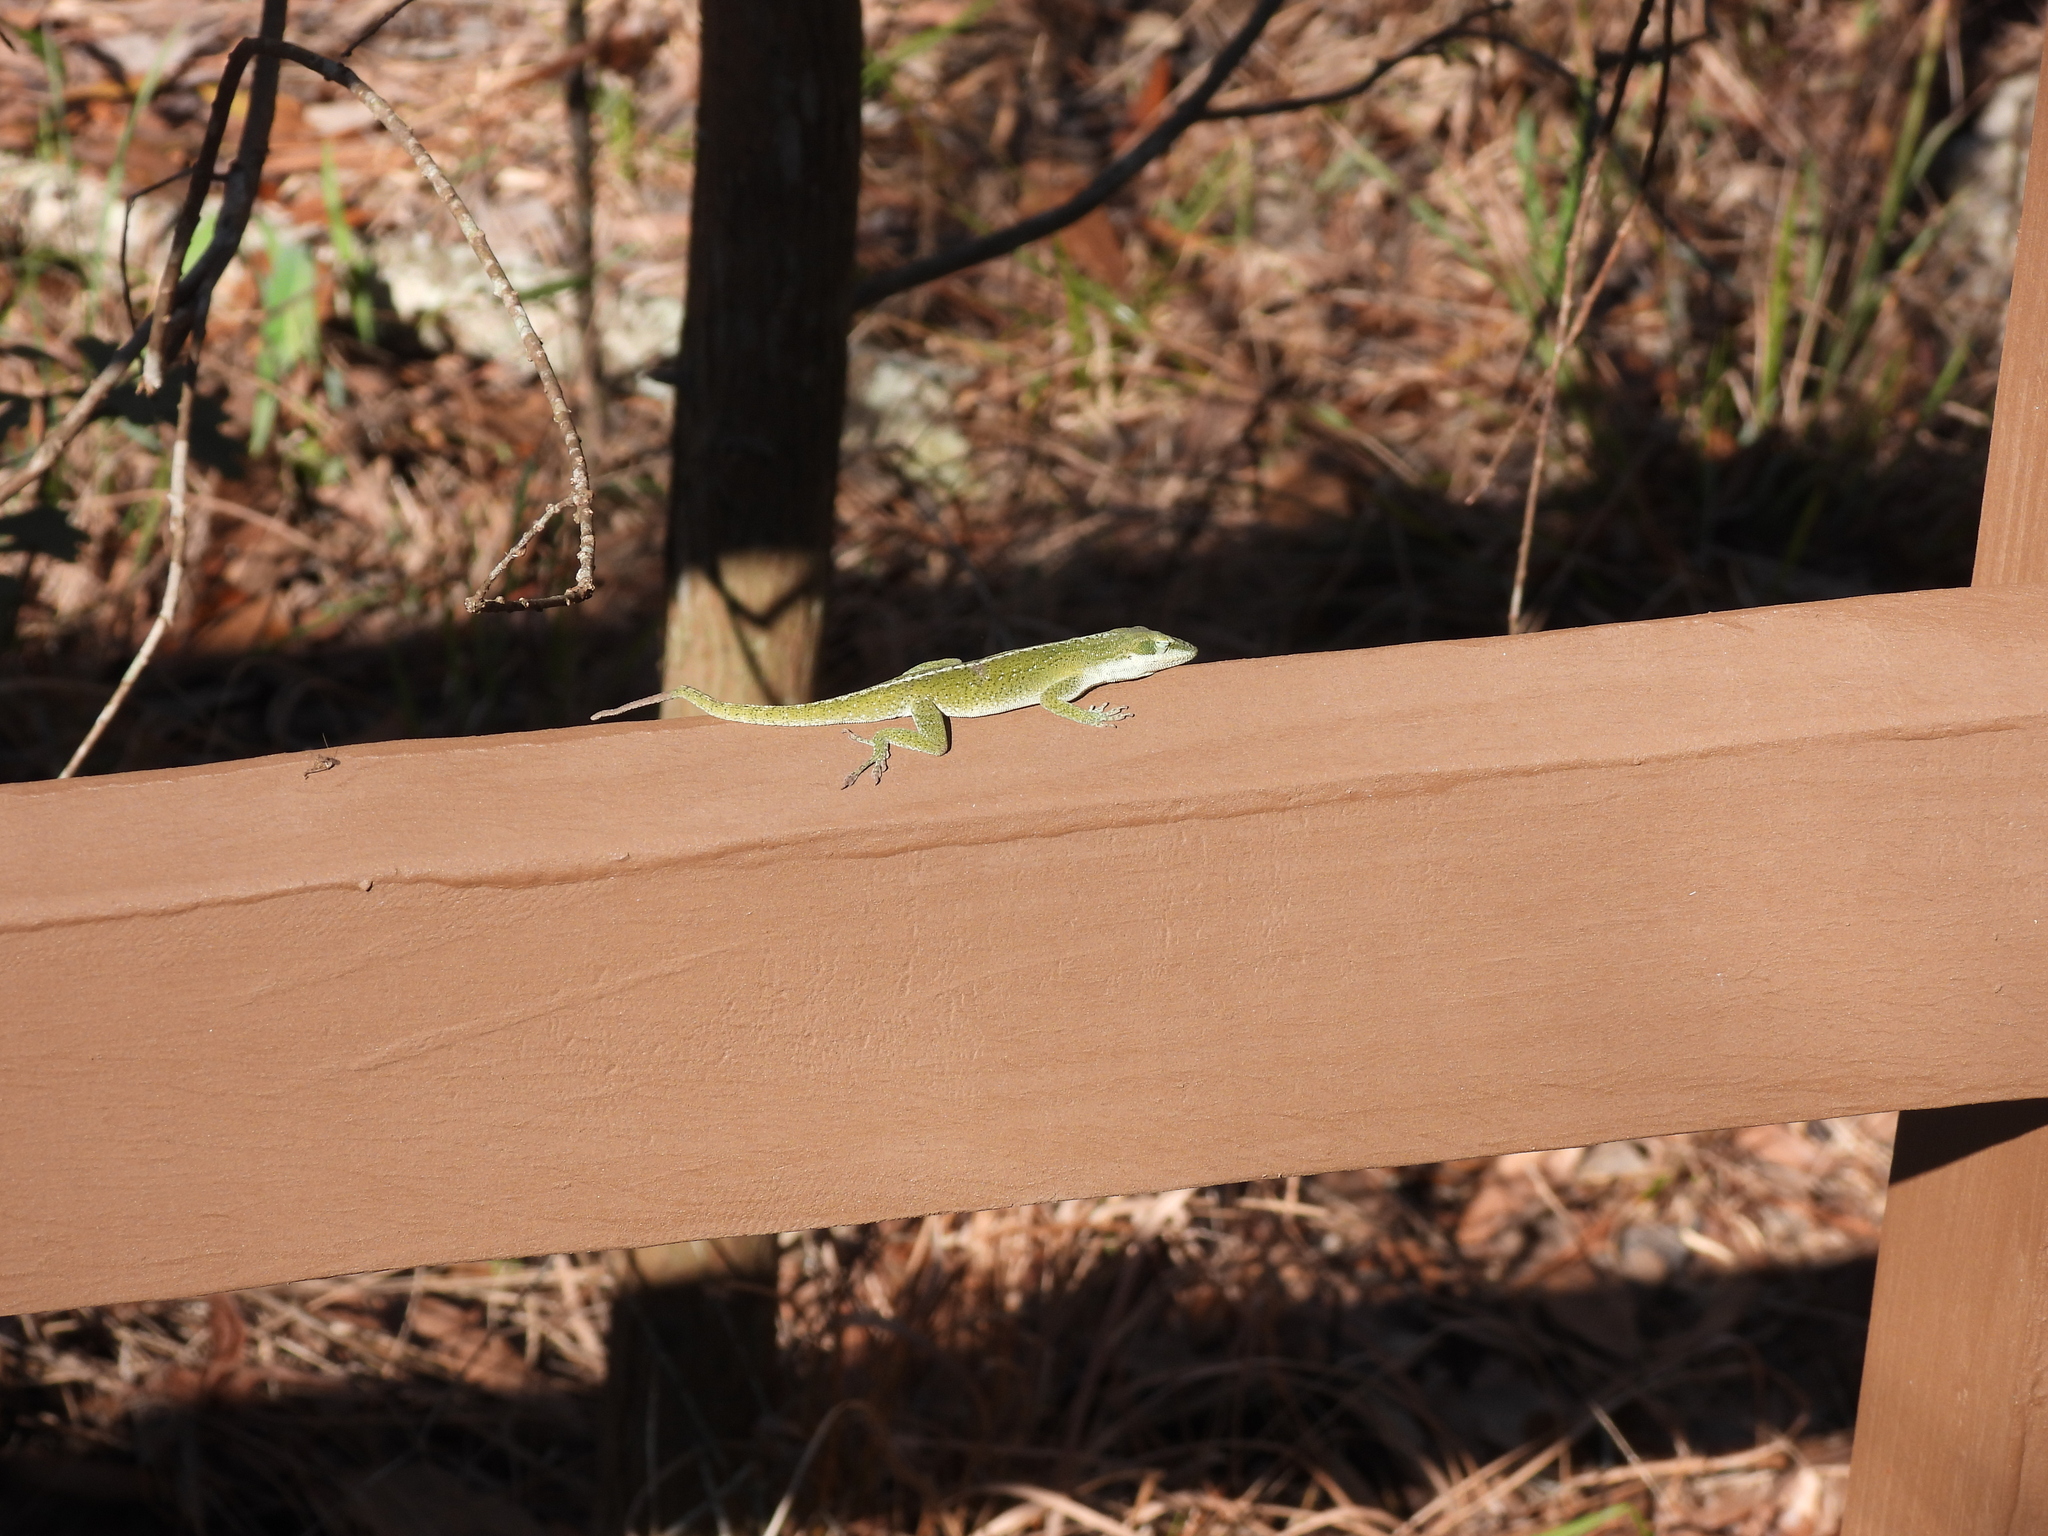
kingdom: Animalia
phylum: Chordata
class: Squamata
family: Dactyloidae
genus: Anolis
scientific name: Anolis carolinensis
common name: Green anole
